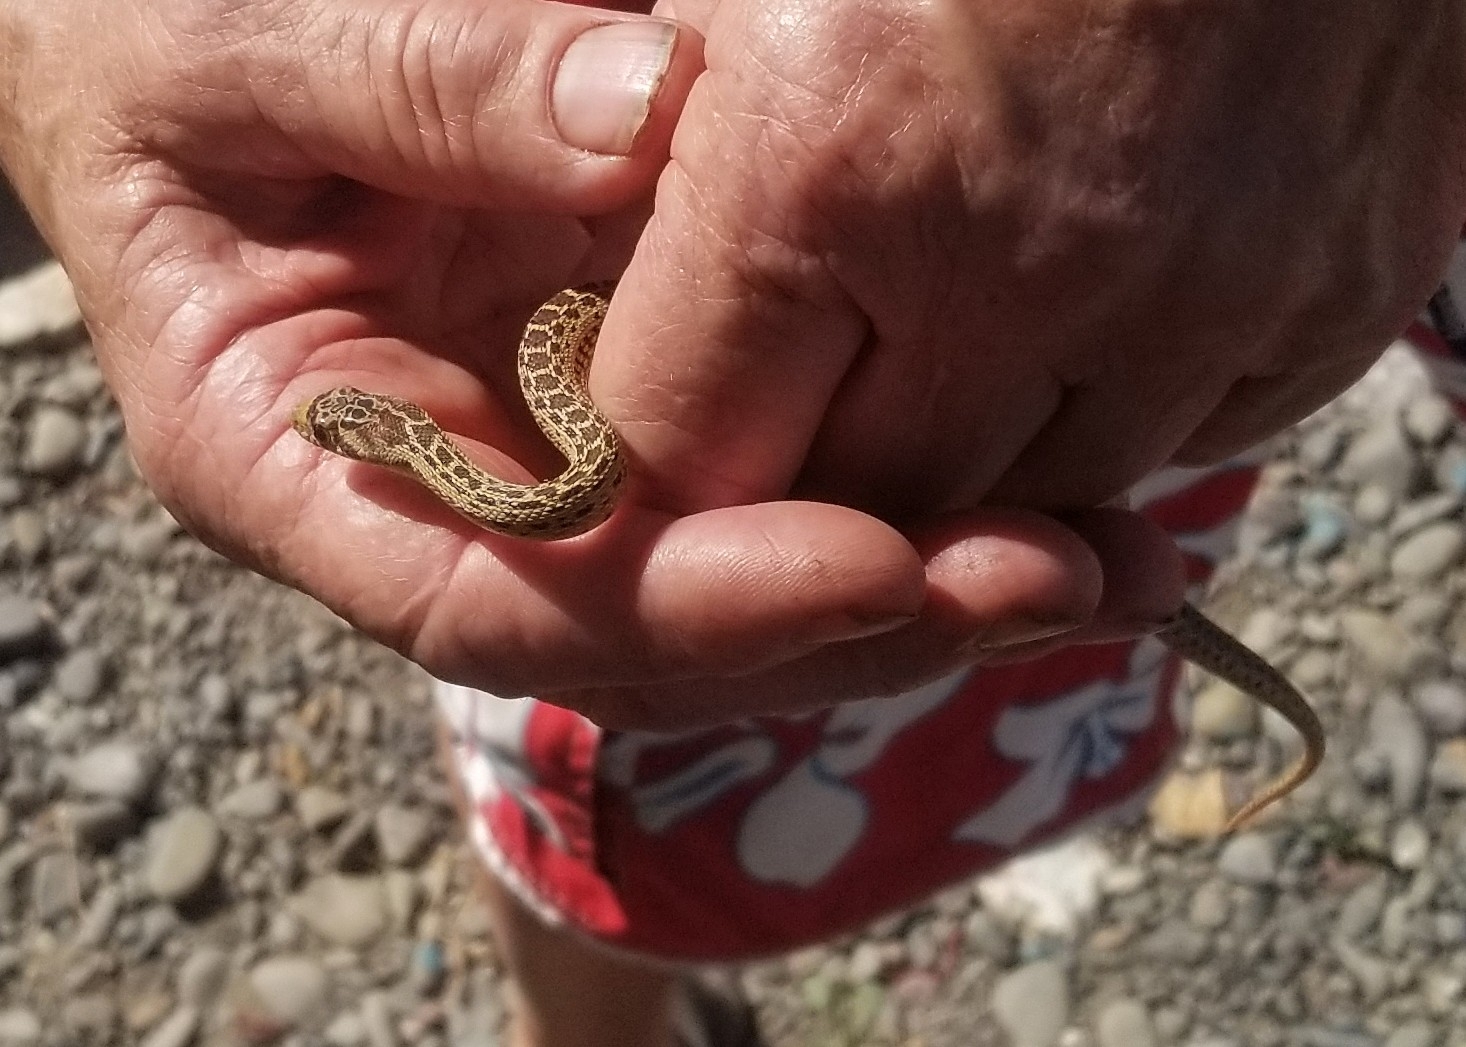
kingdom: Animalia
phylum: Chordata
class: Squamata
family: Colubridae
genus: Pituophis
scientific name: Pituophis catenifer
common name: Gopher snake
